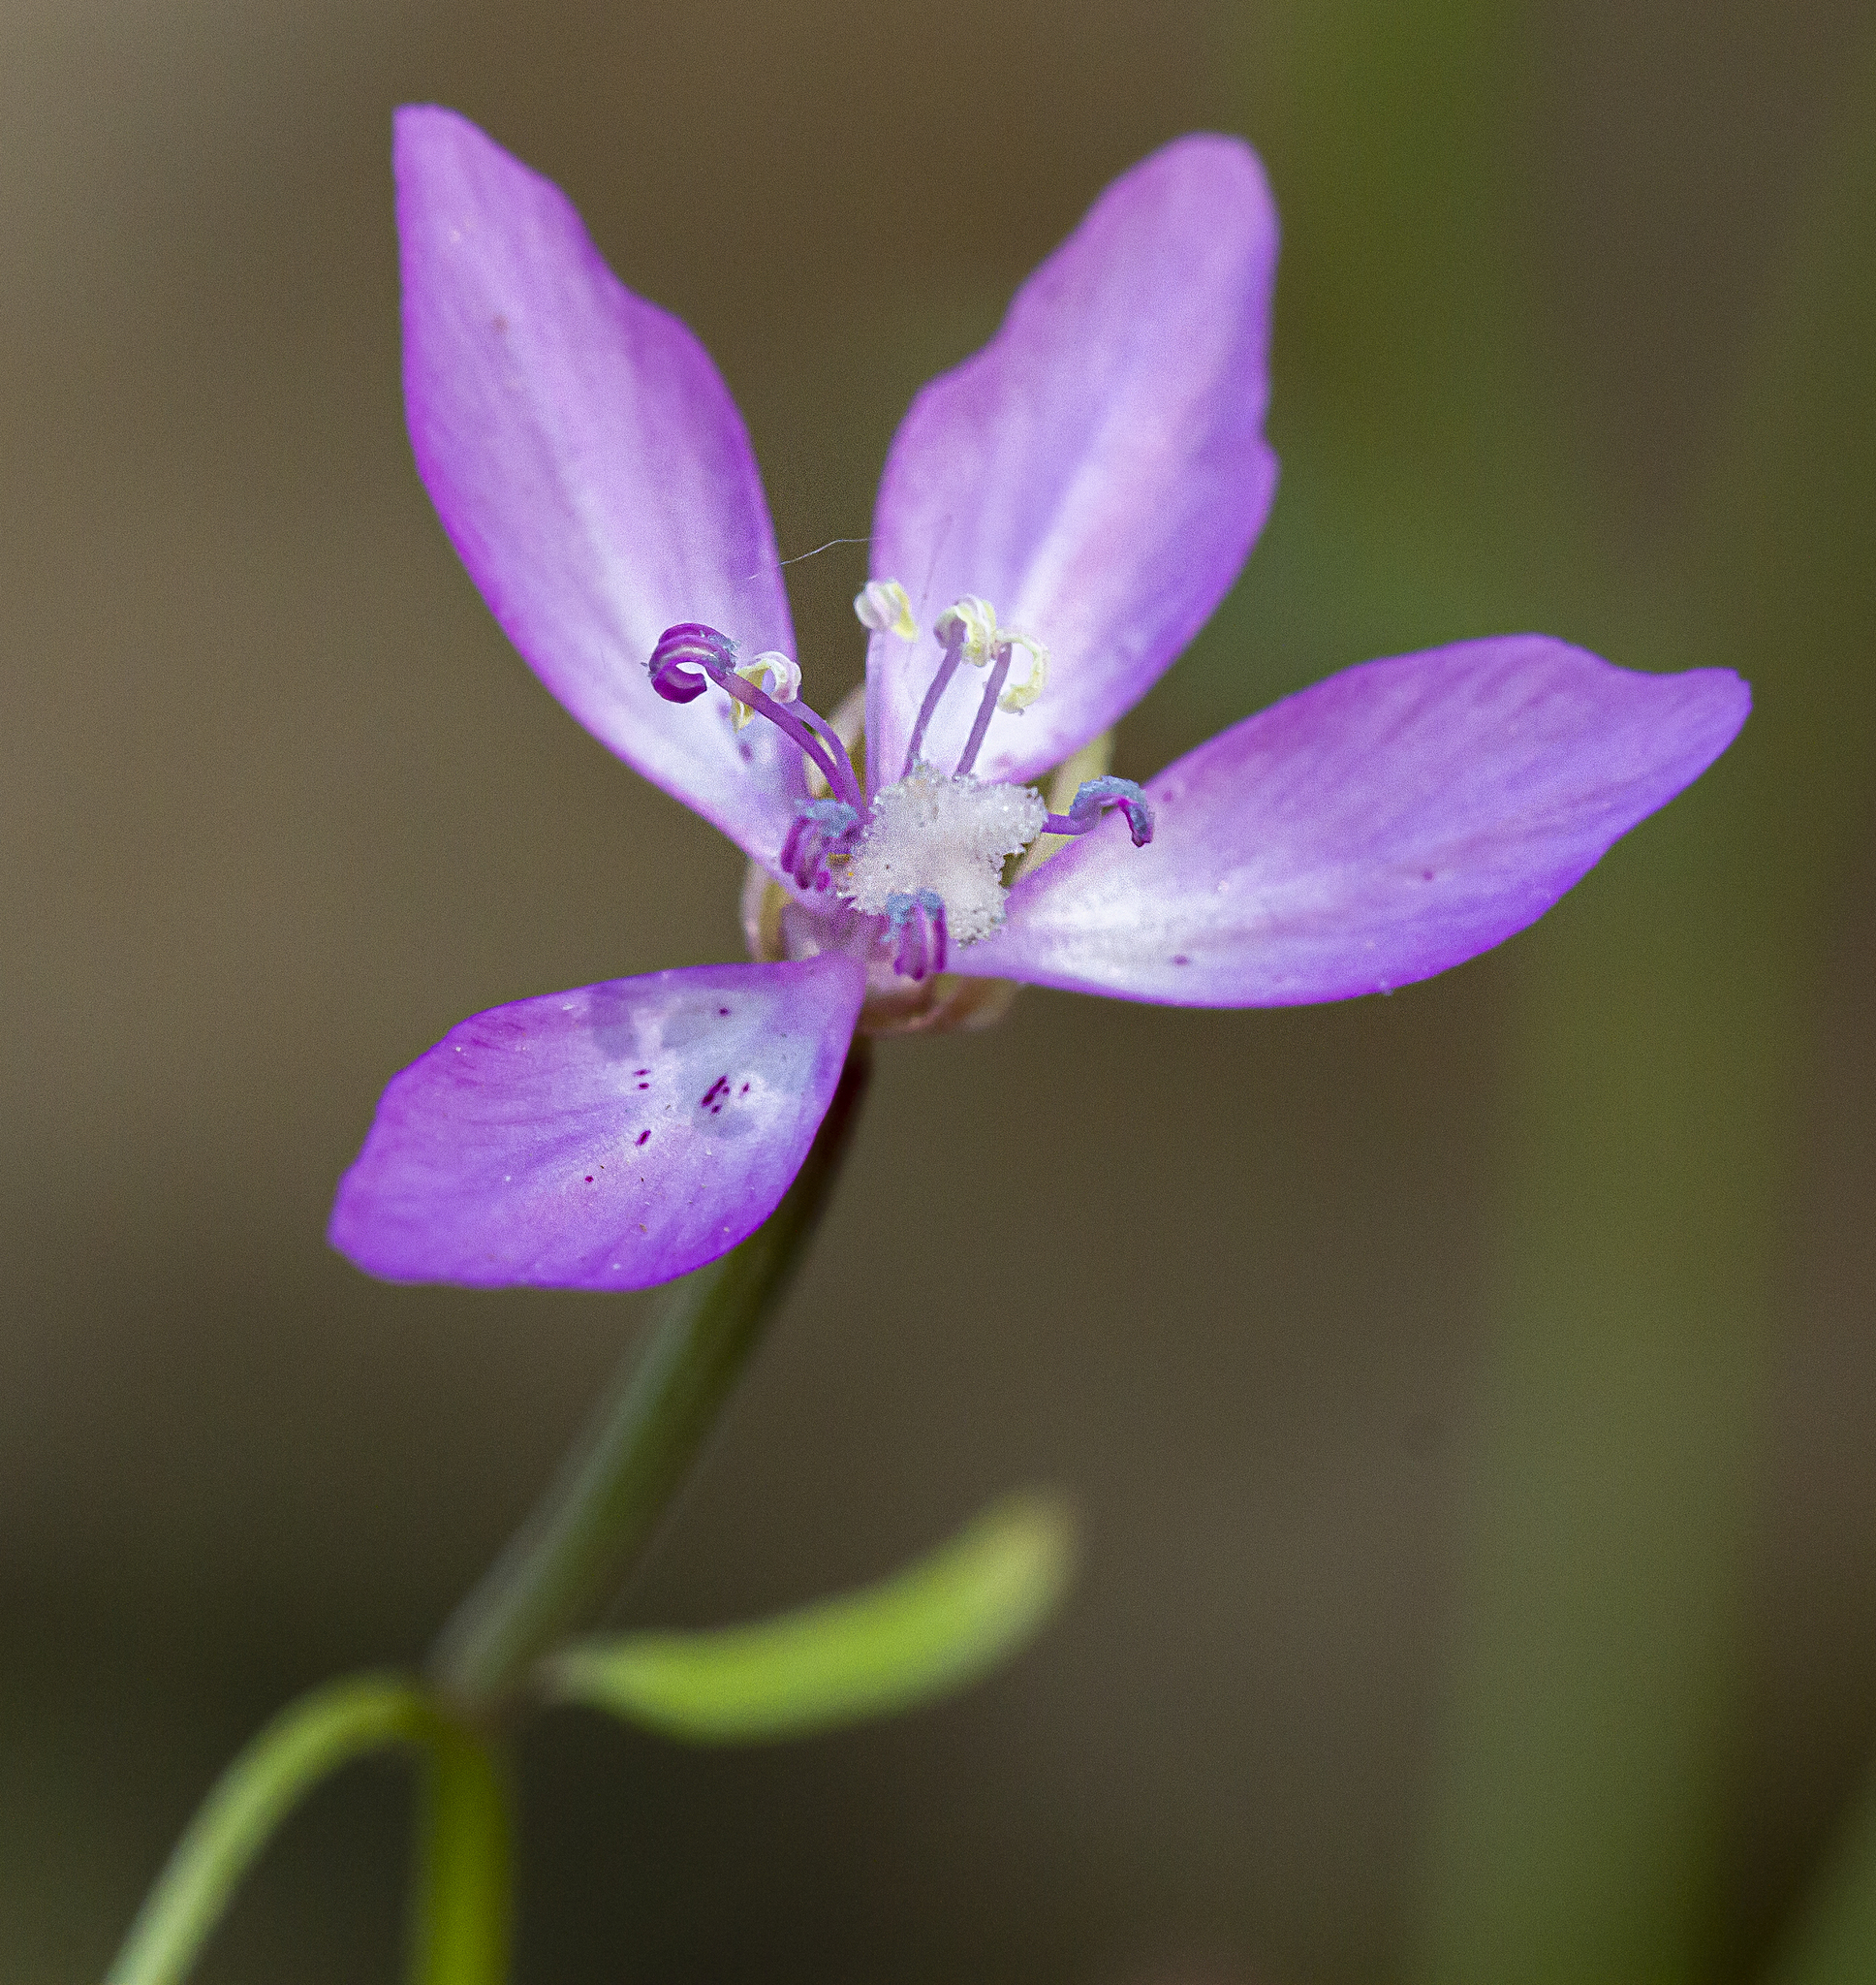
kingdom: Plantae
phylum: Tracheophyta
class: Magnoliopsida
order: Myrtales
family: Onagraceae
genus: Clarkia
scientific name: Clarkia modesta
